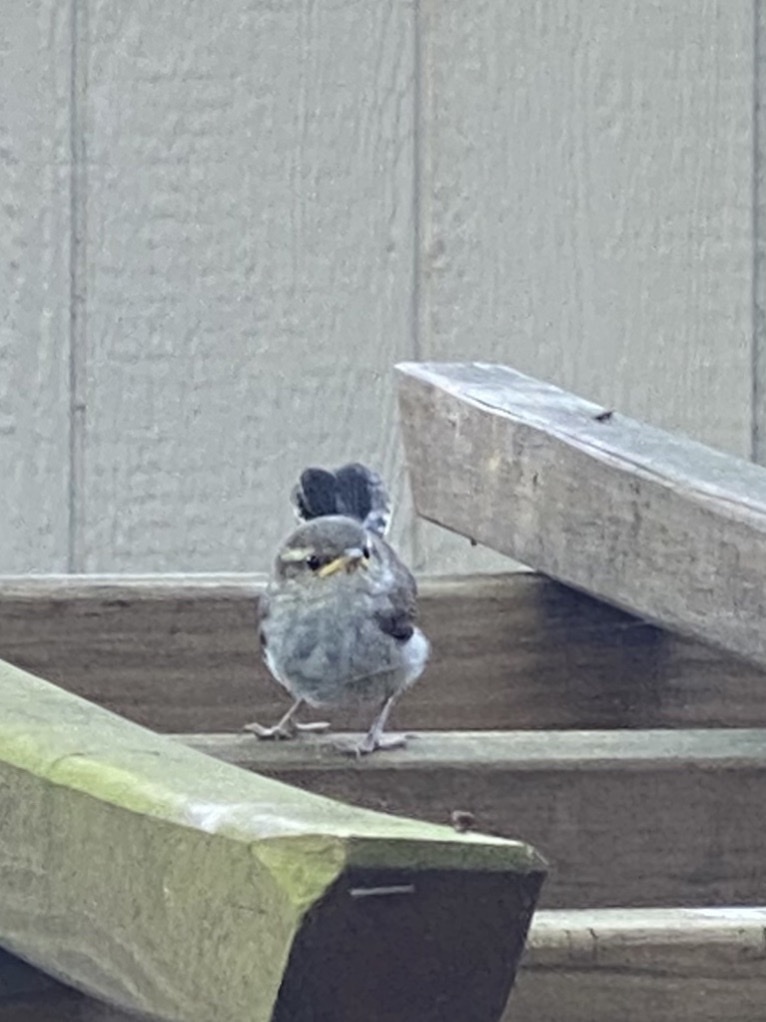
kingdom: Animalia
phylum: Chordata
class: Aves
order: Passeriformes
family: Troglodytidae
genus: Thryomanes
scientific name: Thryomanes bewickii
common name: Bewick's wren
